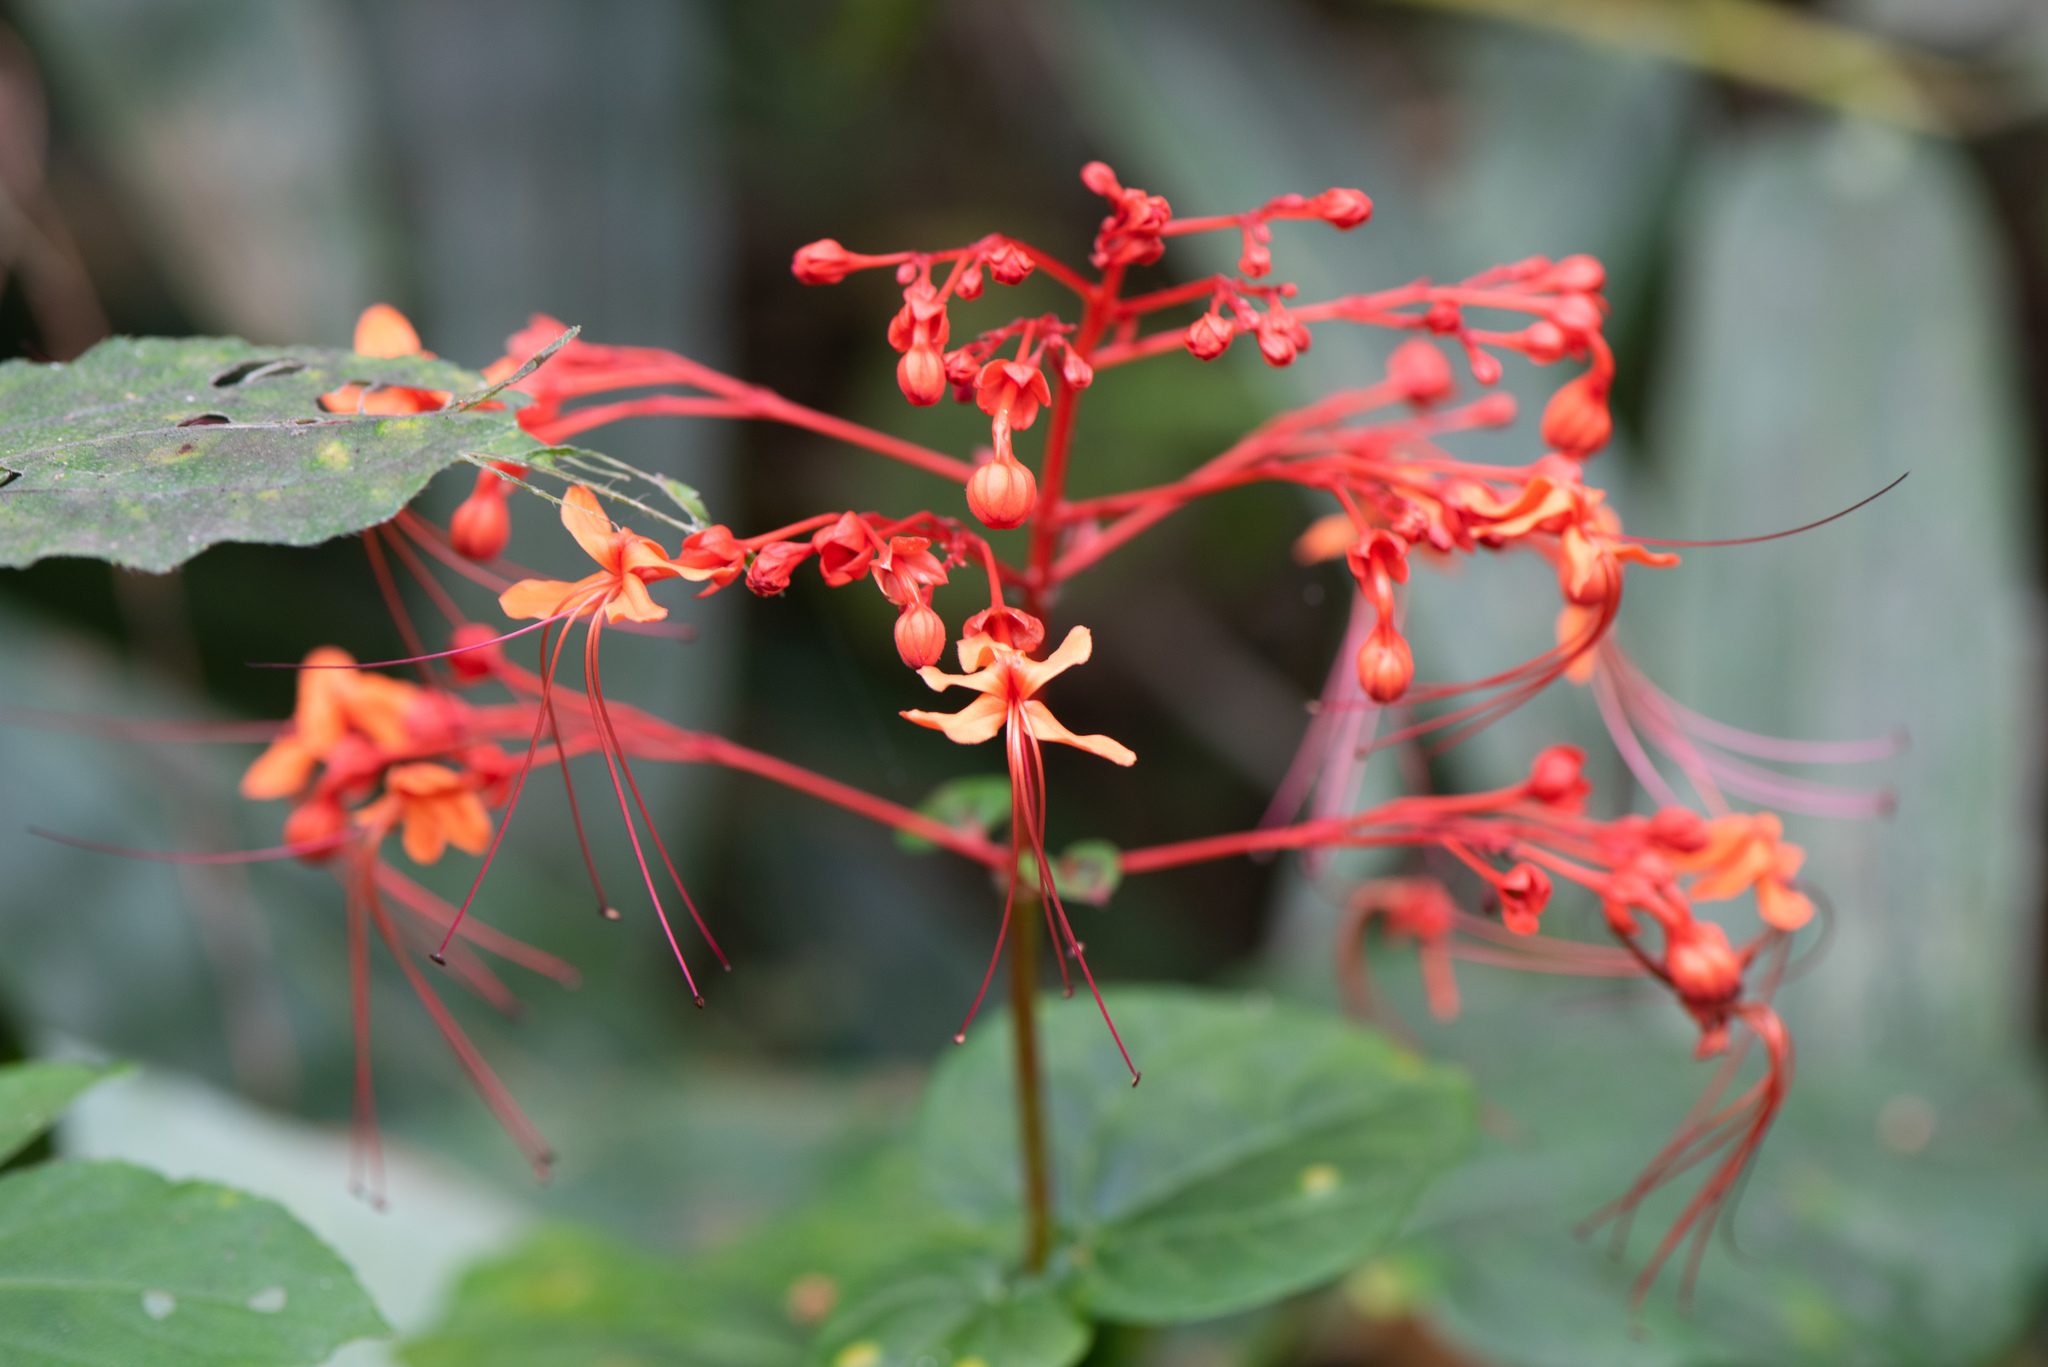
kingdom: Plantae
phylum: Tracheophyta
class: Magnoliopsida
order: Lamiales
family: Lamiaceae
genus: Clerodendrum
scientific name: Clerodendrum japonicum
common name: Japanese glorybower
